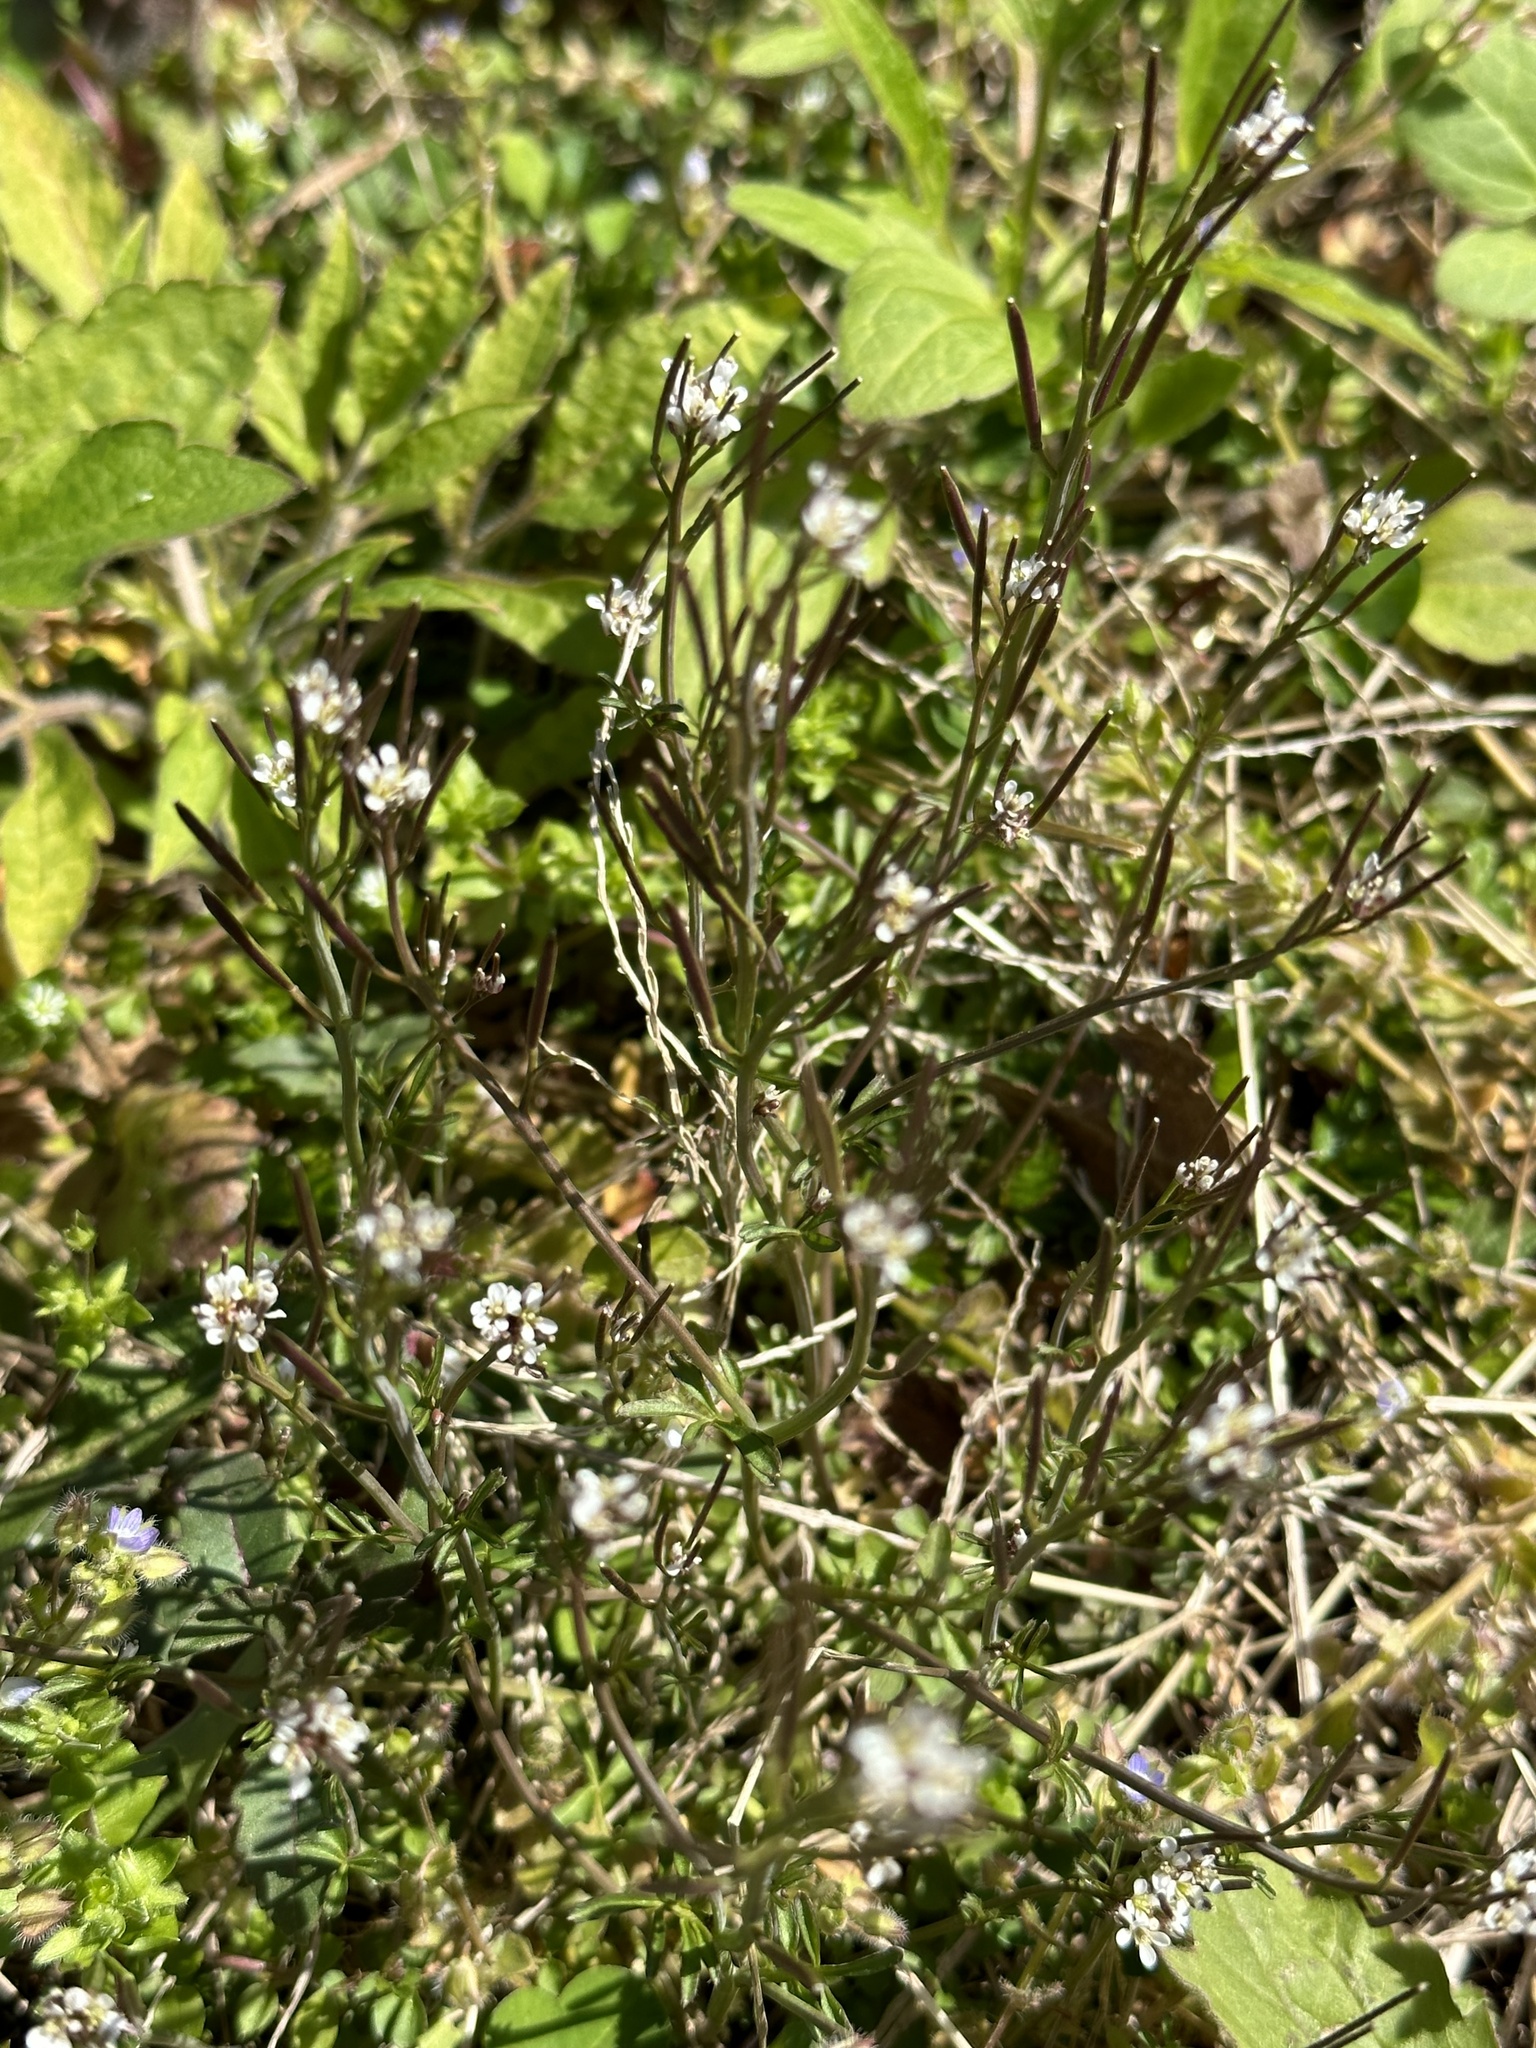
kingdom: Plantae
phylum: Tracheophyta
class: Magnoliopsida
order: Brassicales
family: Brassicaceae
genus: Cardamine
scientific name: Cardamine hirsuta
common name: Hairy bittercress
